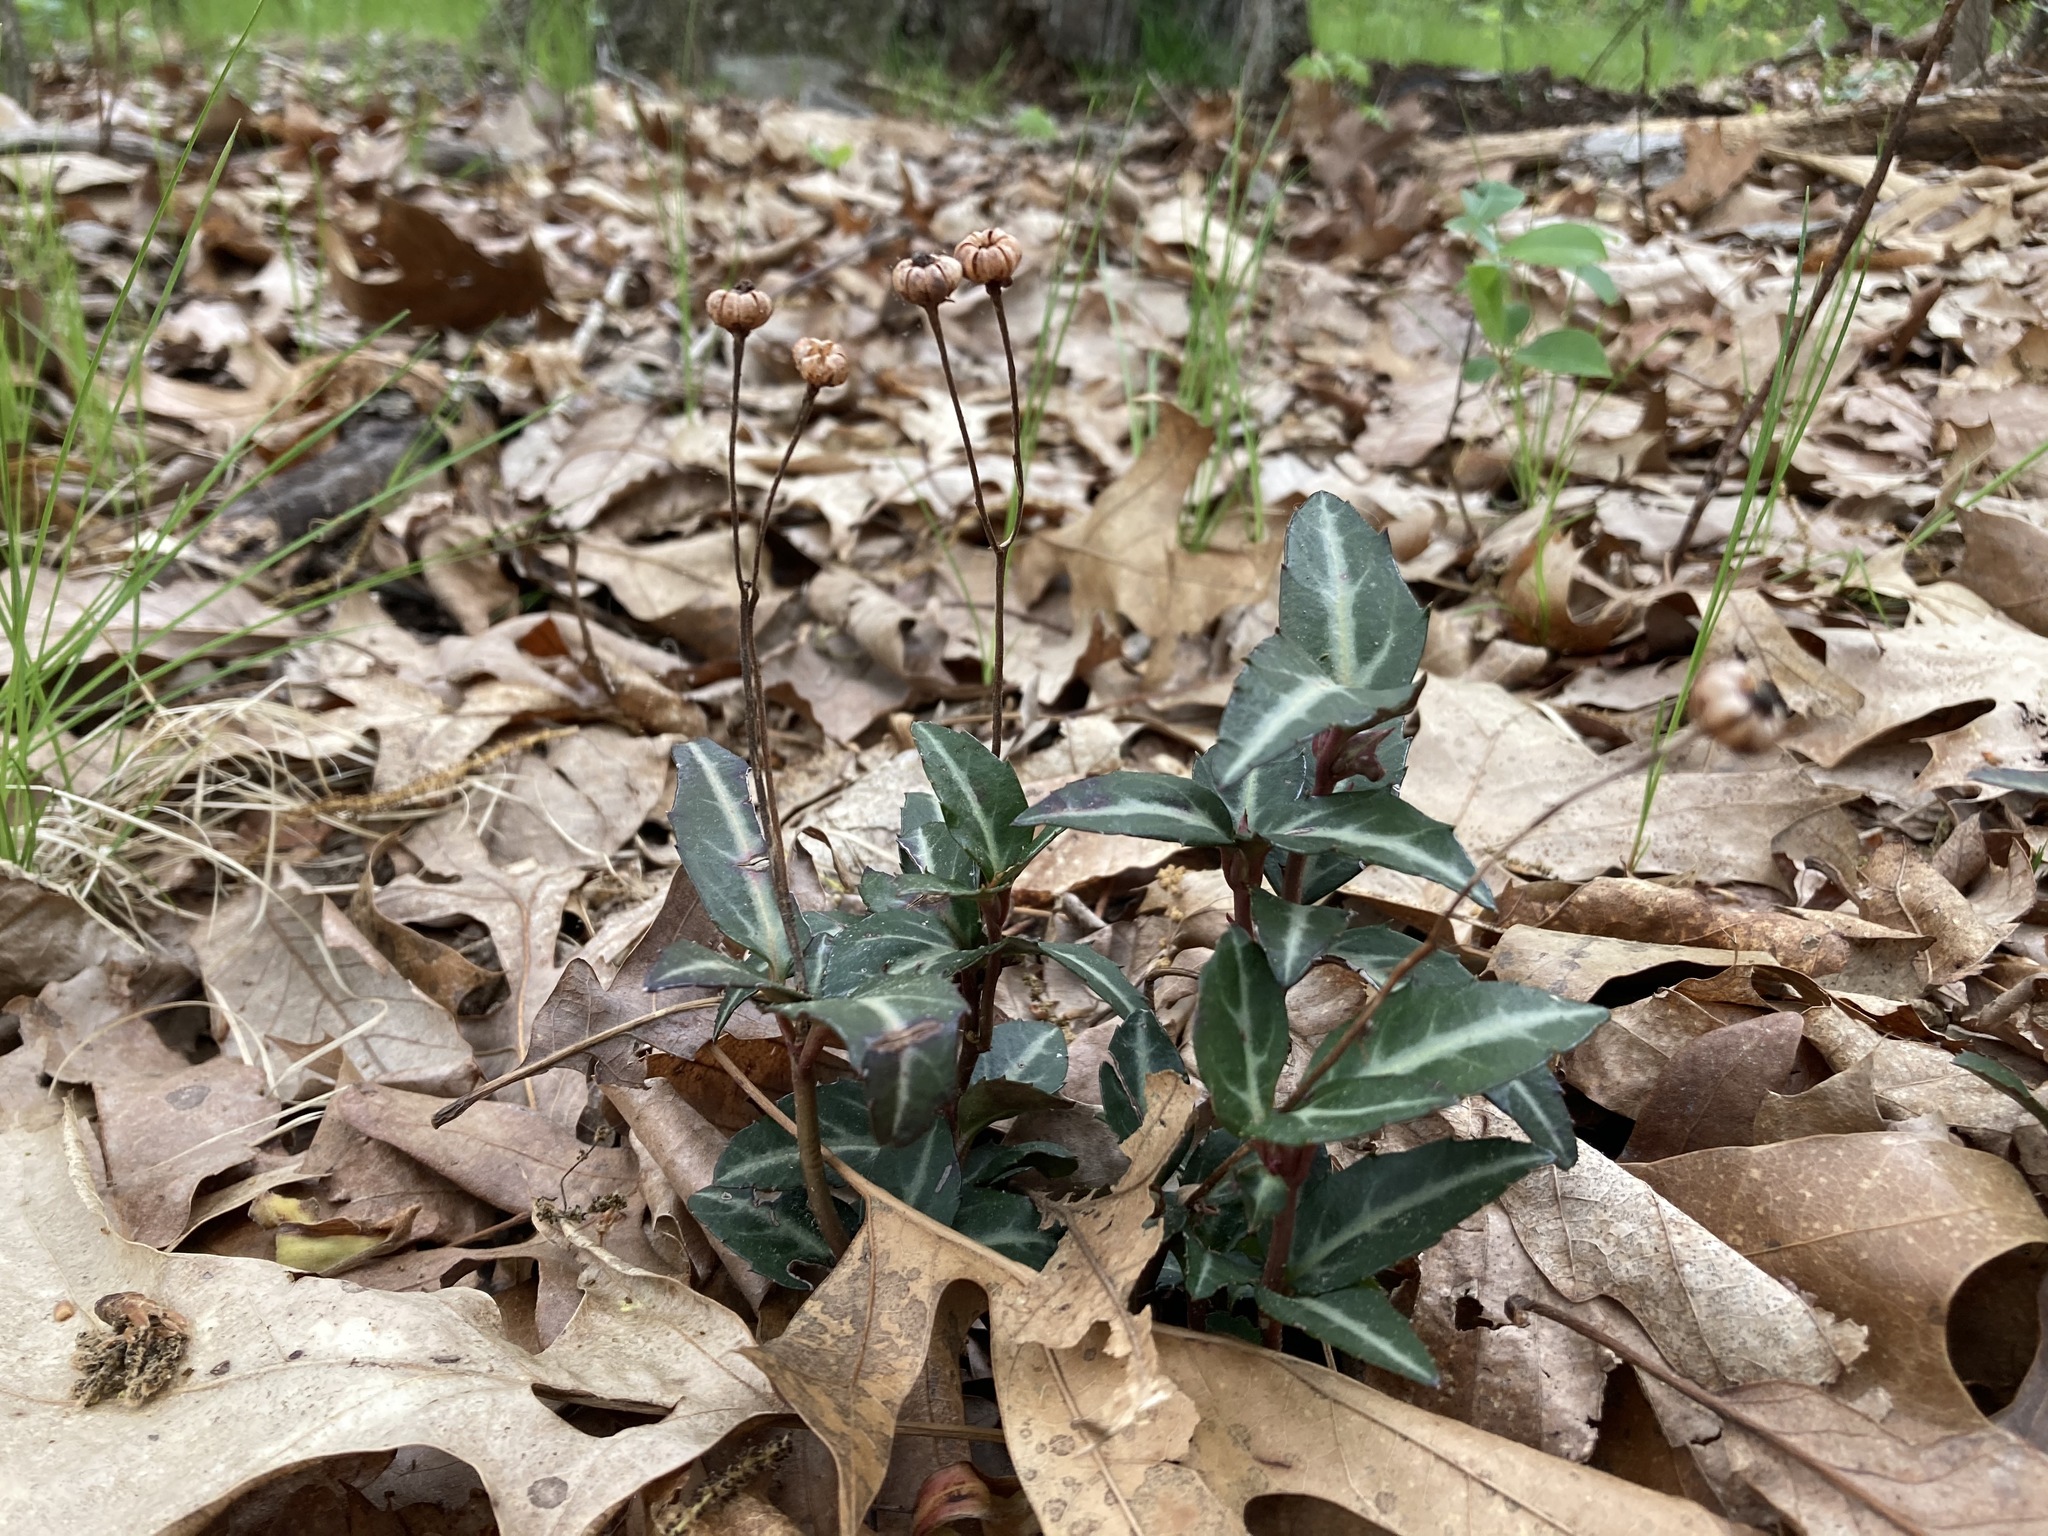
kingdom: Plantae
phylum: Tracheophyta
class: Magnoliopsida
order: Ericales
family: Ericaceae
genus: Chimaphila
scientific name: Chimaphila maculata
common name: Spotted pipsissewa
